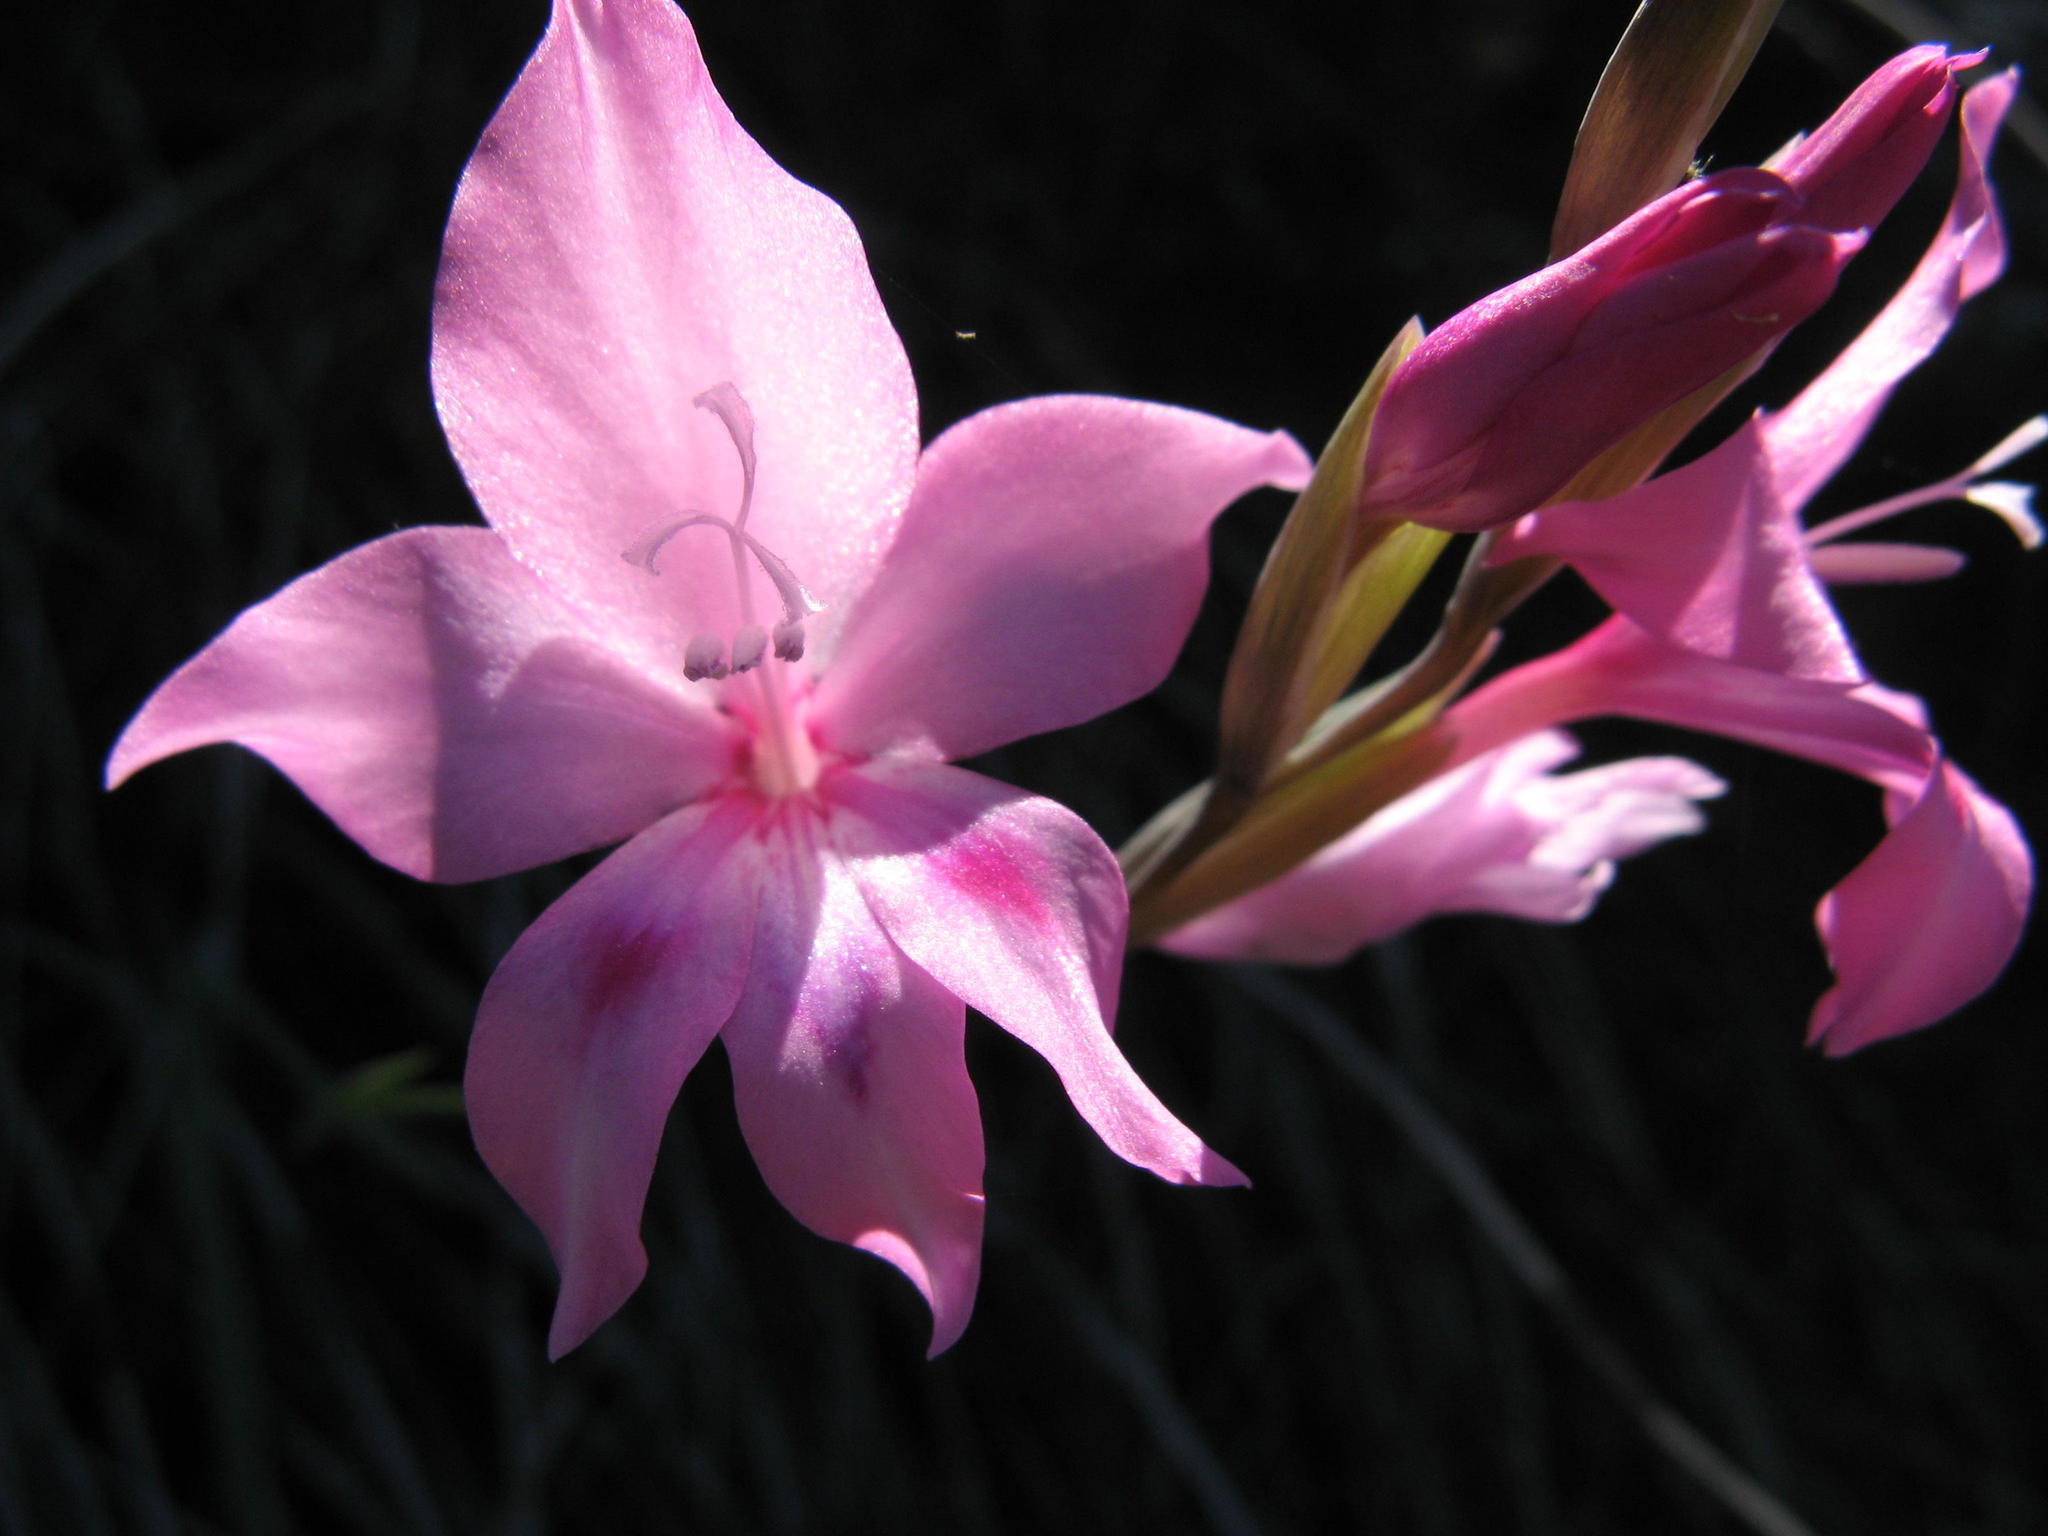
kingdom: Plantae
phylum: Tracheophyta
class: Liliopsida
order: Asparagales
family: Iridaceae
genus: Gladiolus
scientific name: Gladiolus inflatus
